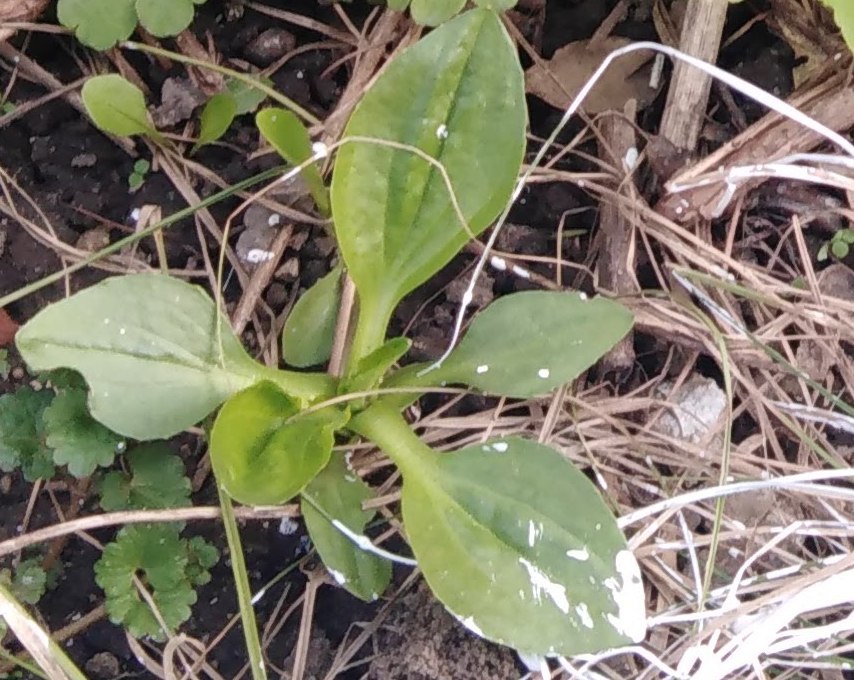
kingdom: Plantae
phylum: Tracheophyta
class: Magnoliopsida
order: Lamiales
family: Plantaginaceae
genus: Plantago
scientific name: Plantago major
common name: Common plantain
